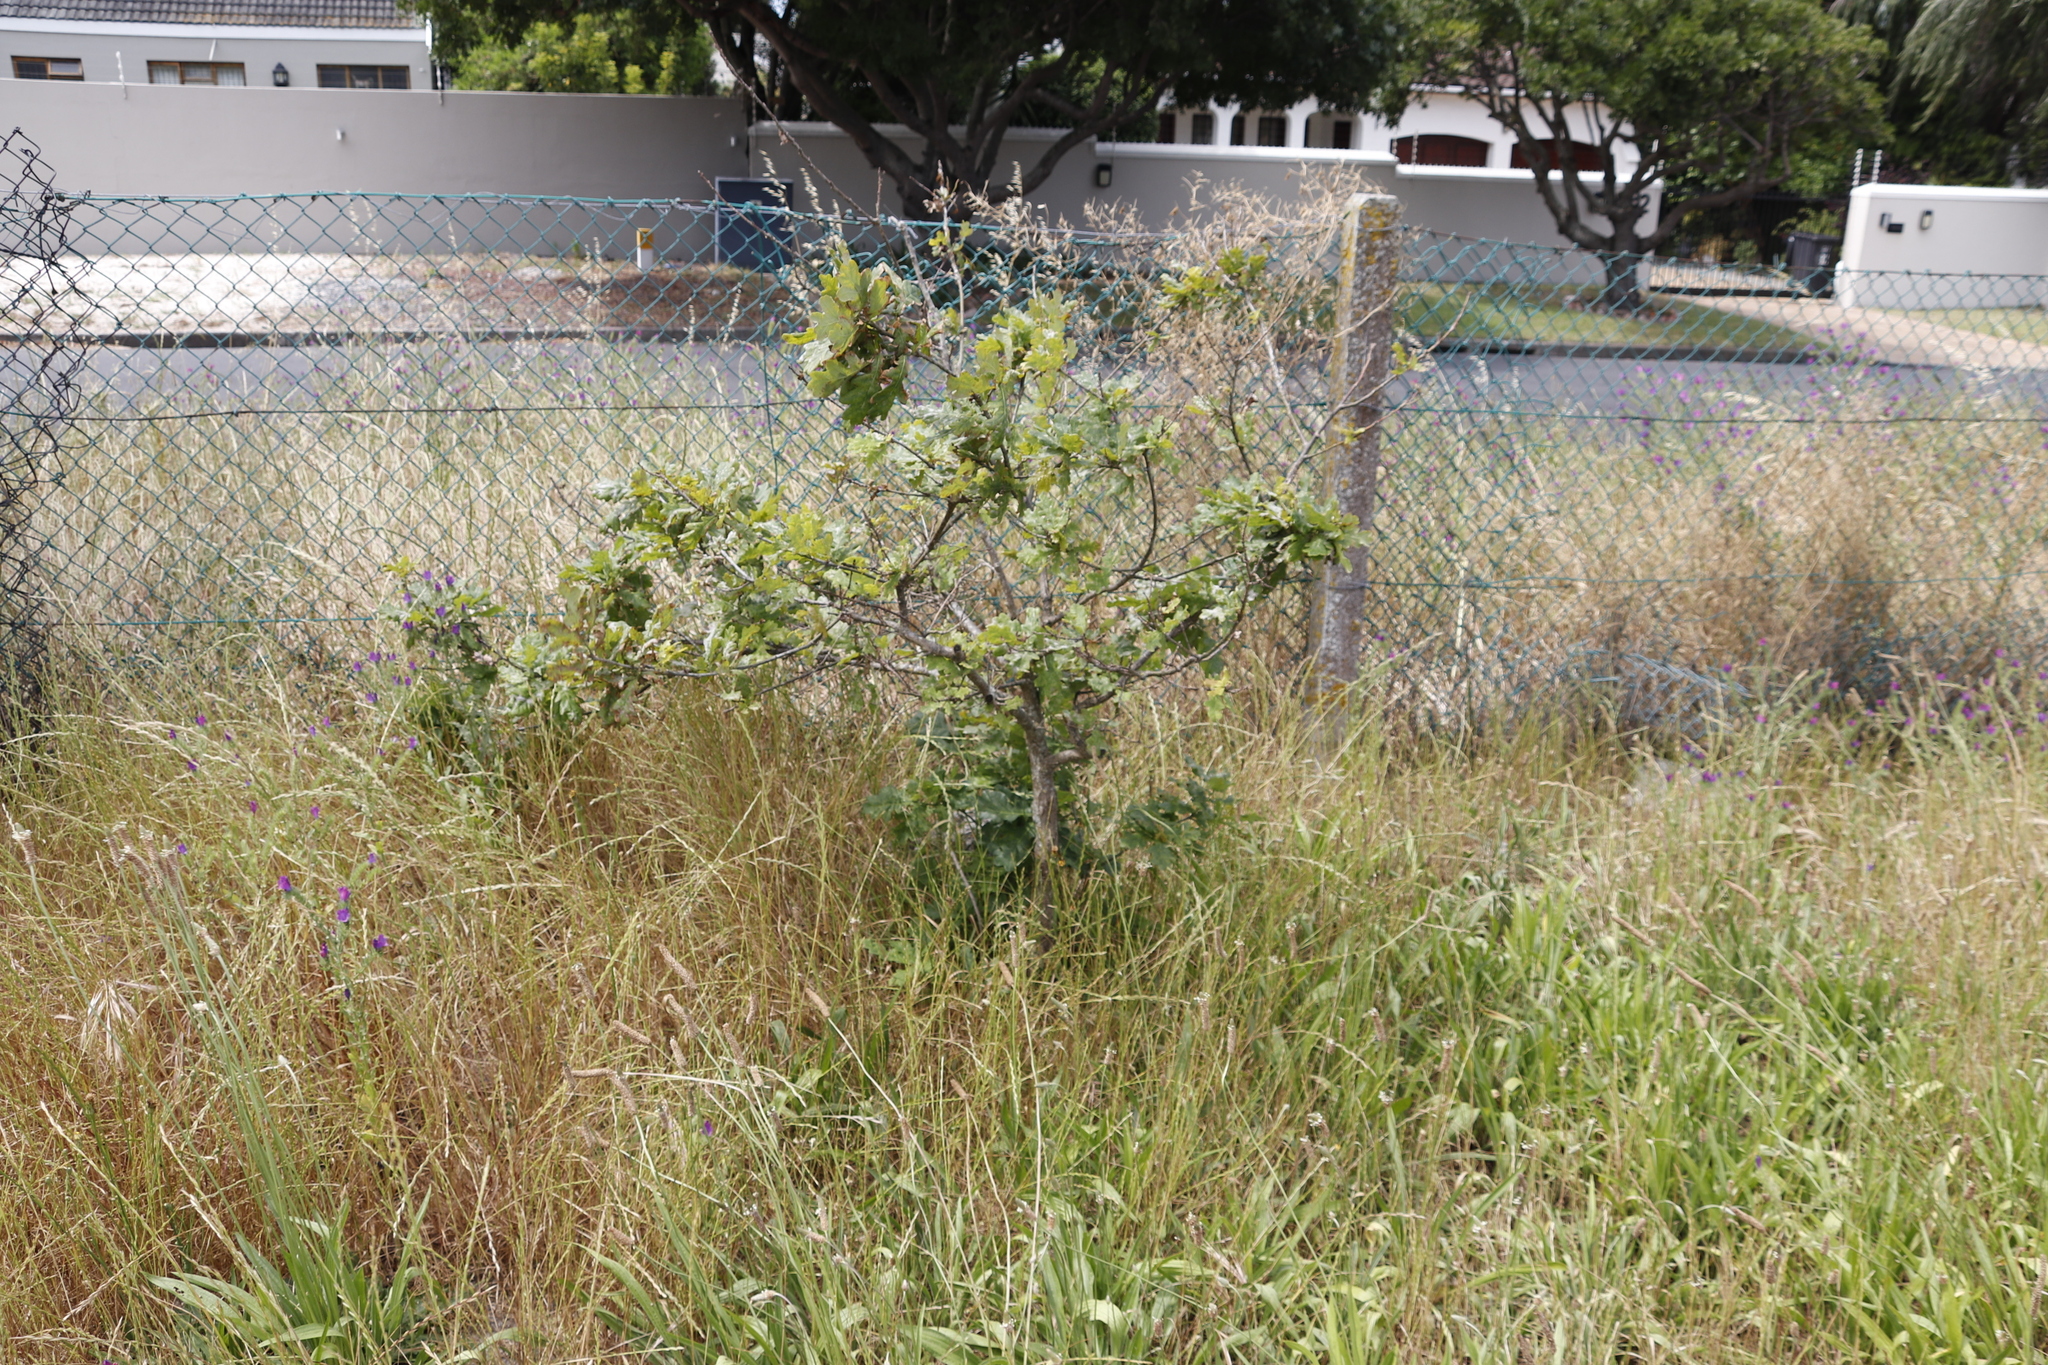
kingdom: Plantae
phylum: Tracheophyta
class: Magnoliopsida
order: Fagales
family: Fagaceae
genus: Quercus
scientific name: Quercus robur
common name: Pedunculate oak
